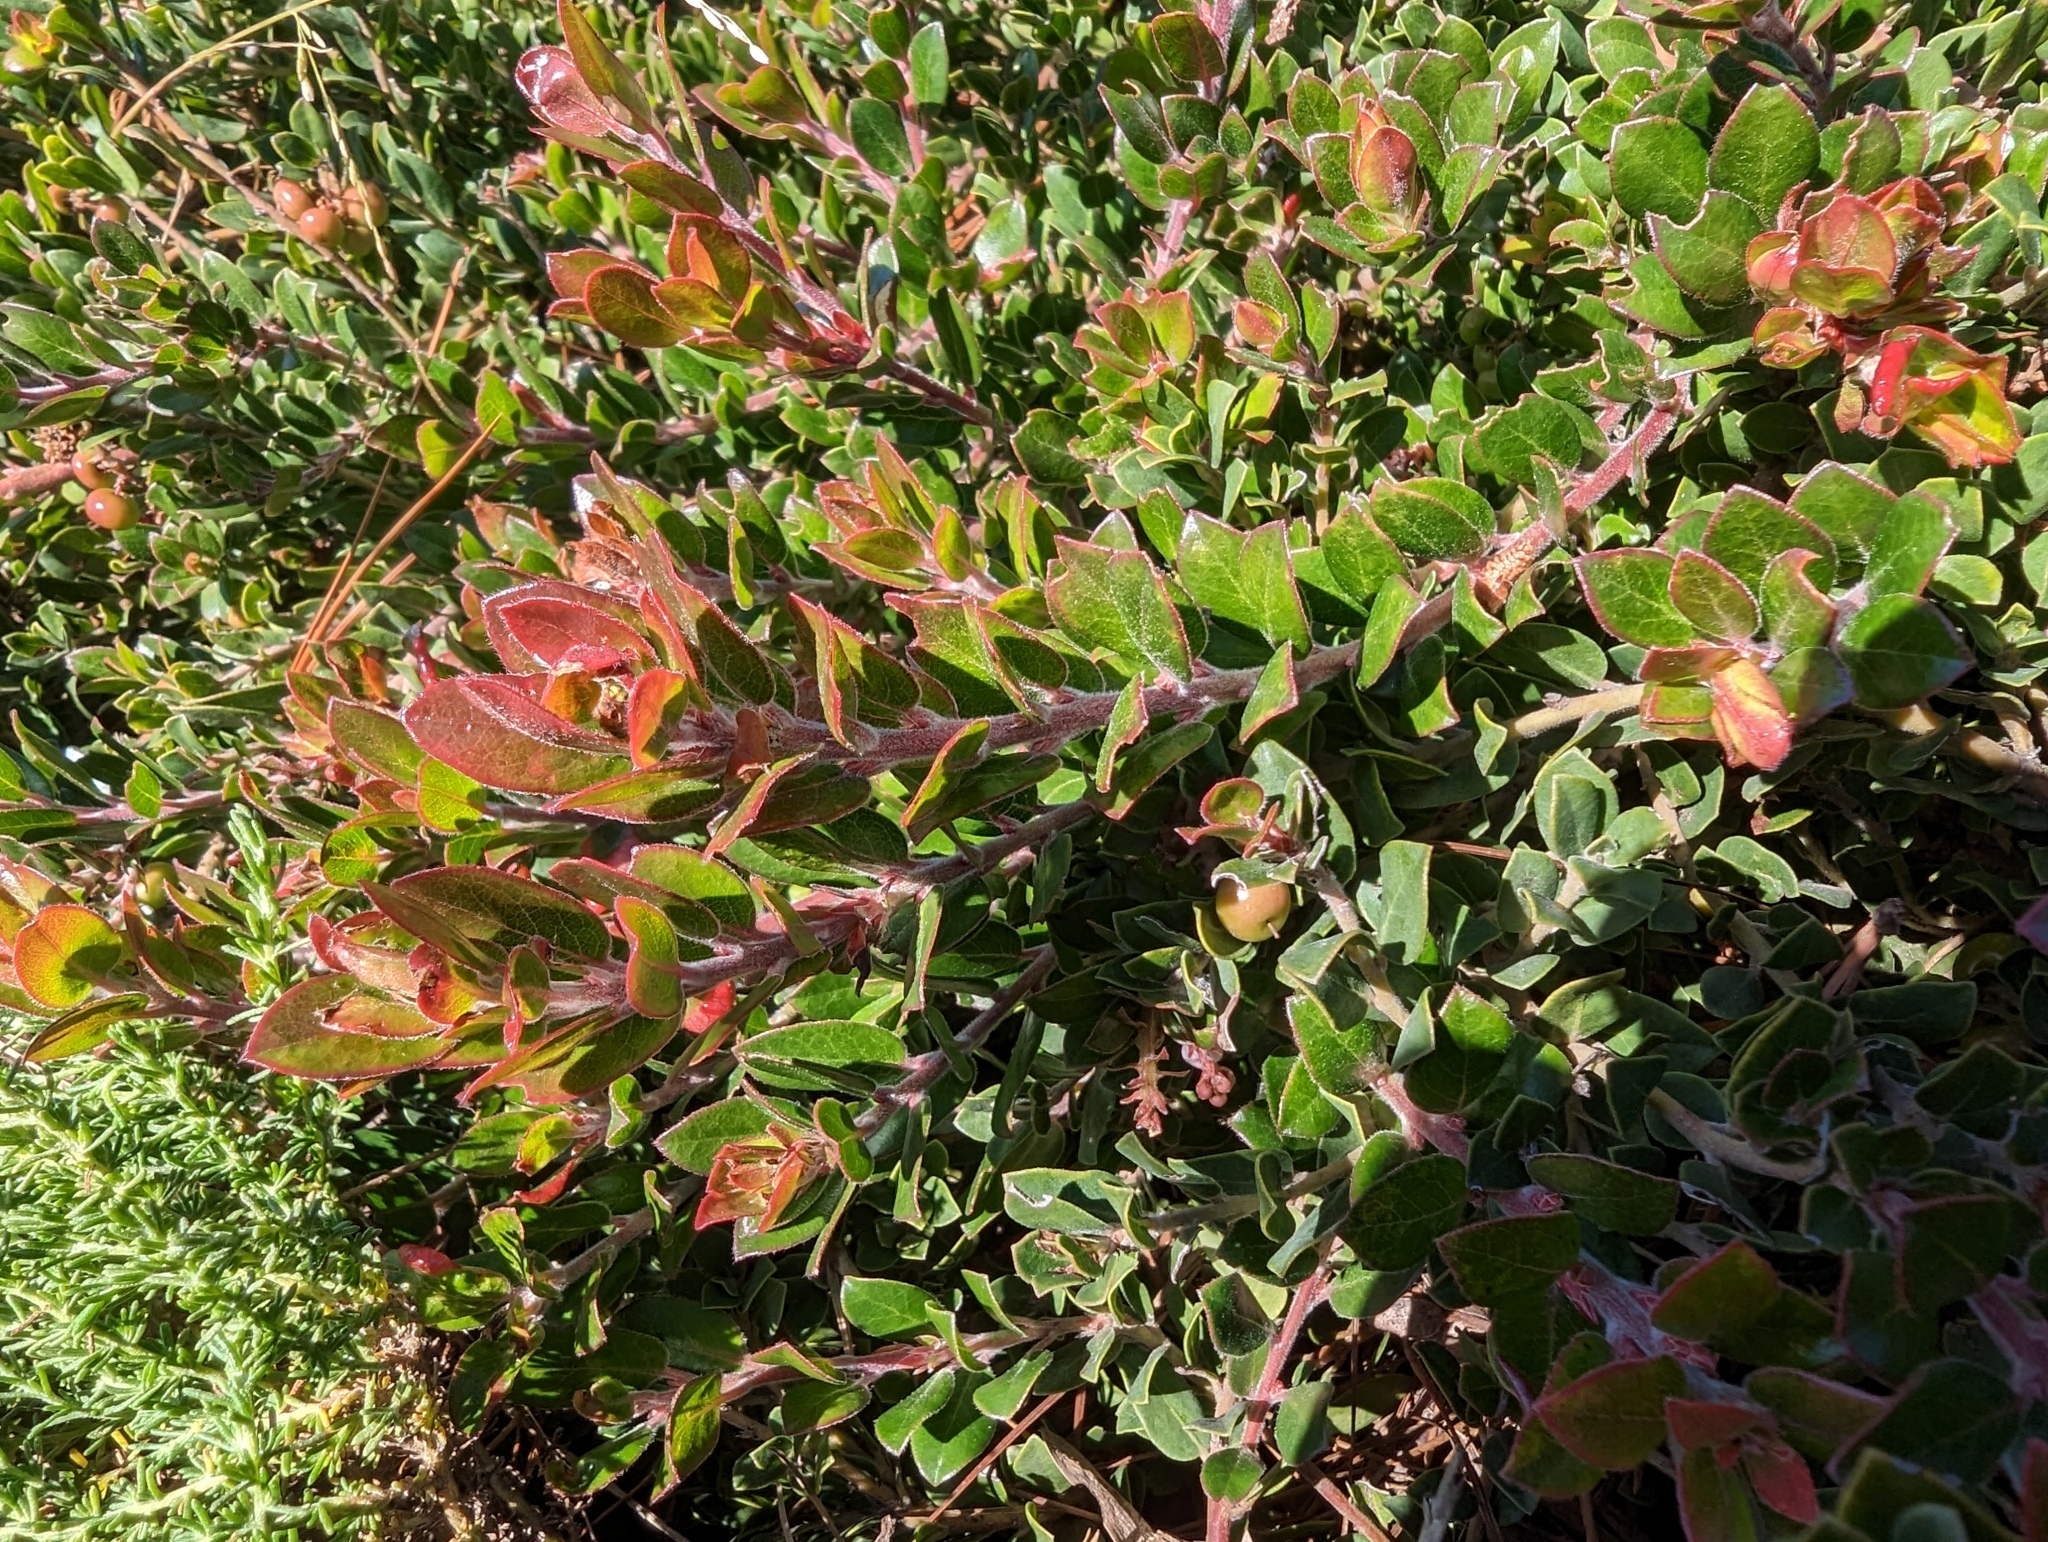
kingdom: Plantae
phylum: Tracheophyta
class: Magnoliopsida
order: Ericales
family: Ericaceae
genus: Arctostaphylos
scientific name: Arctostaphylos edmundsii
